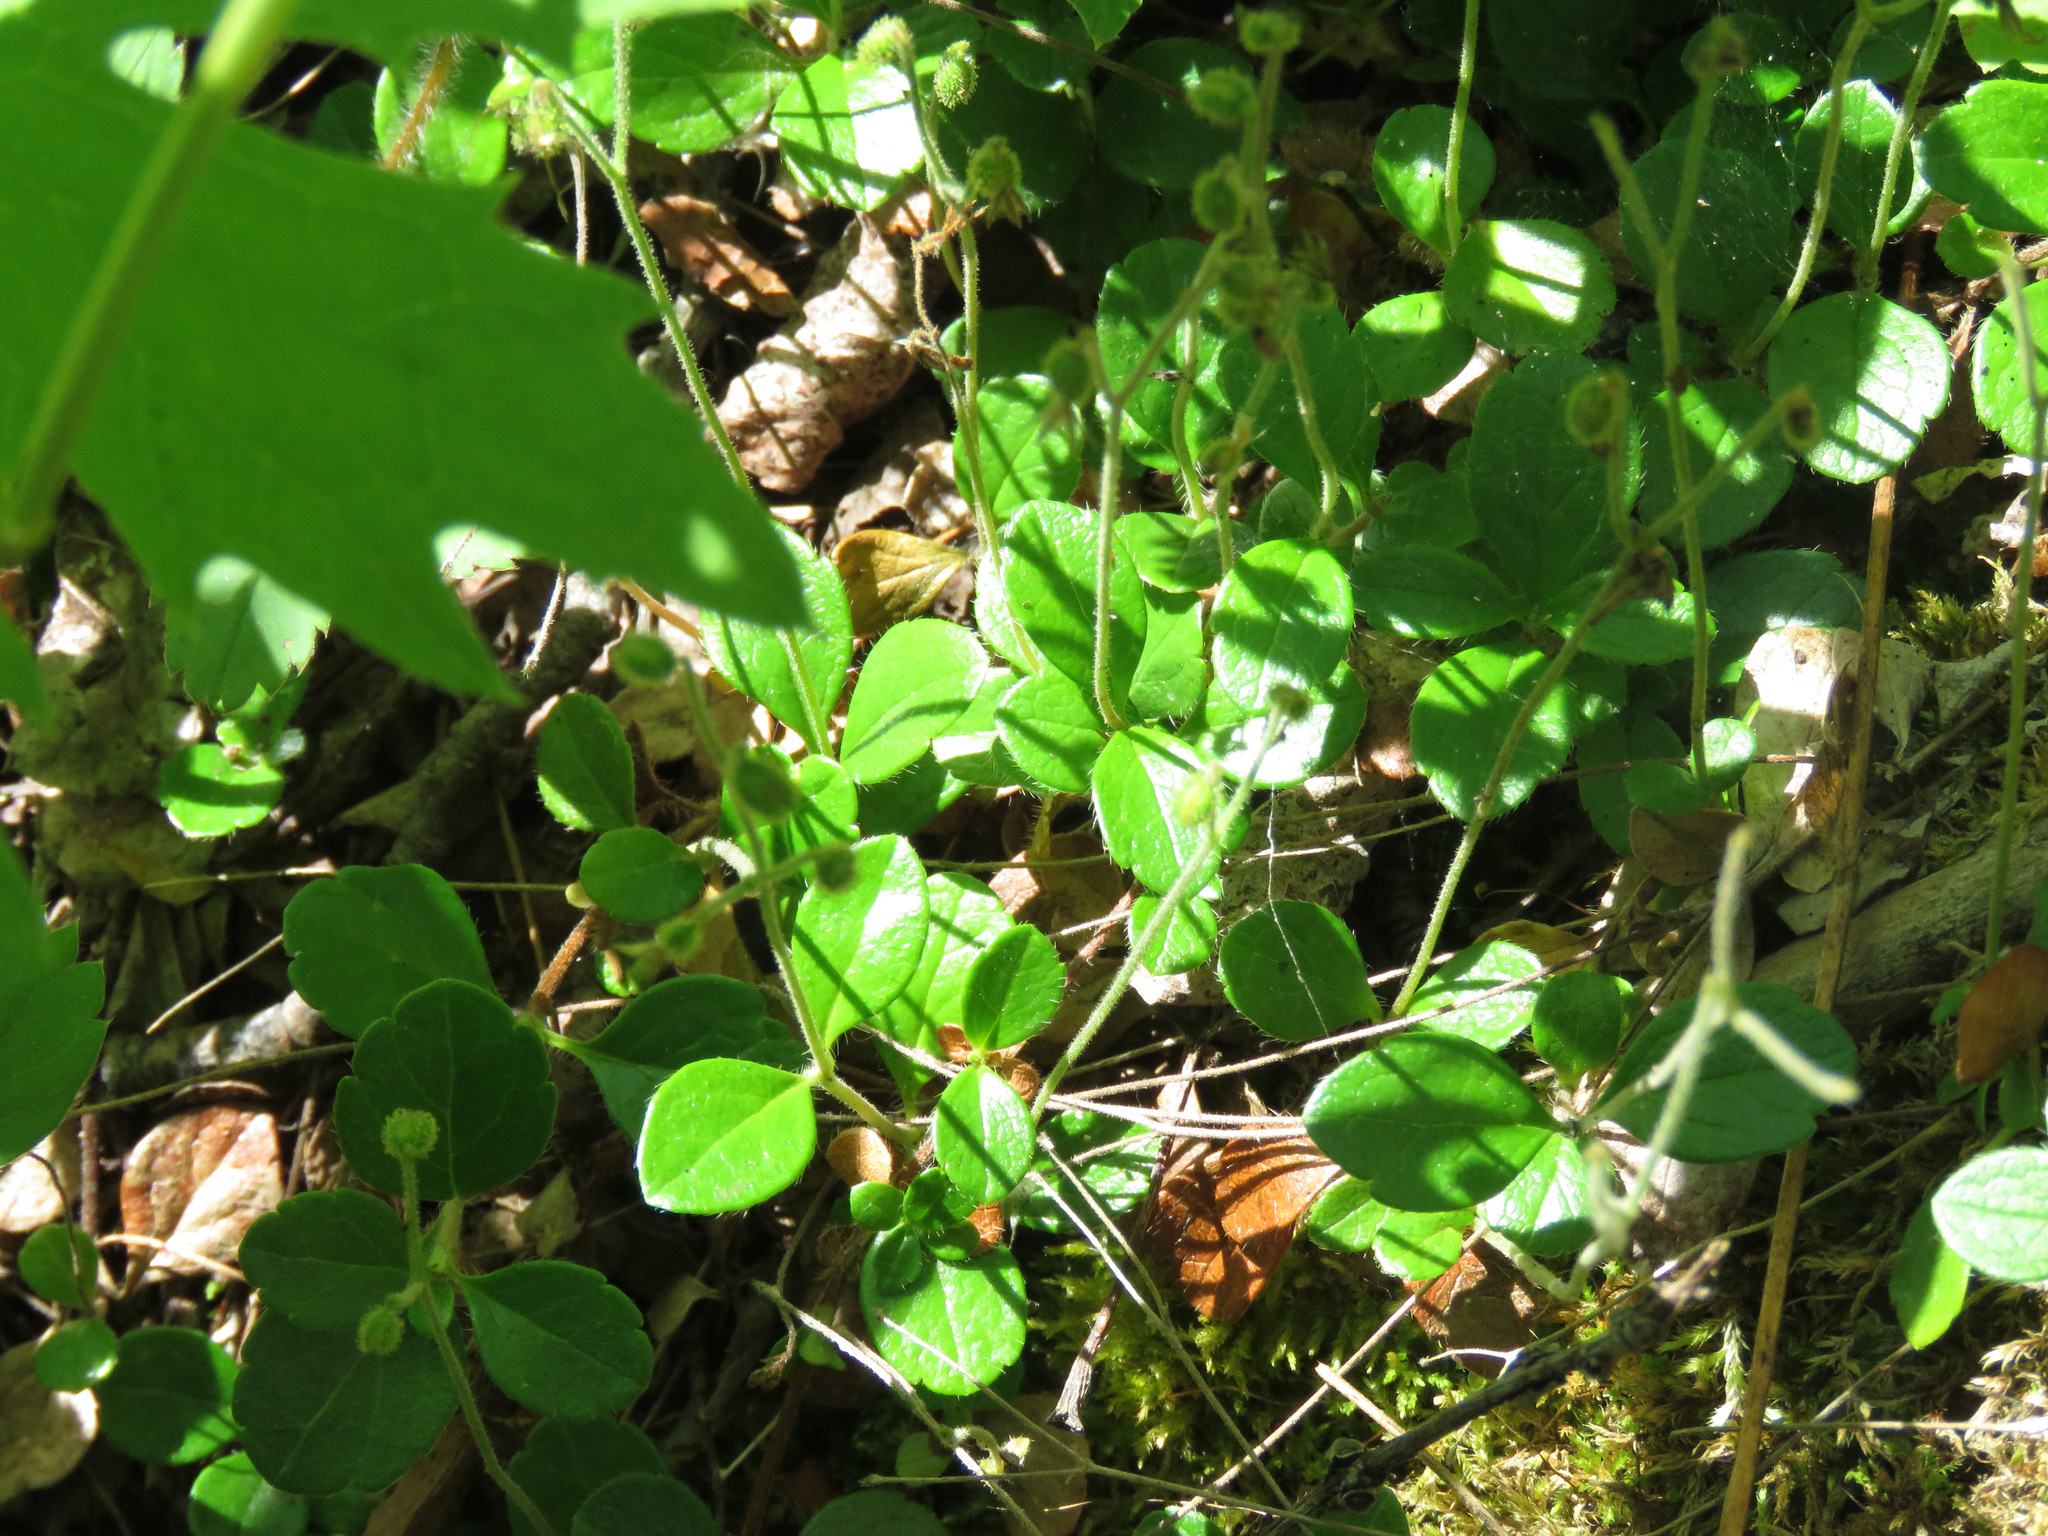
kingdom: Plantae
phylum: Tracheophyta
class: Magnoliopsida
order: Dipsacales
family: Caprifoliaceae
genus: Linnaea
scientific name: Linnaea borealis
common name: Twinflower
